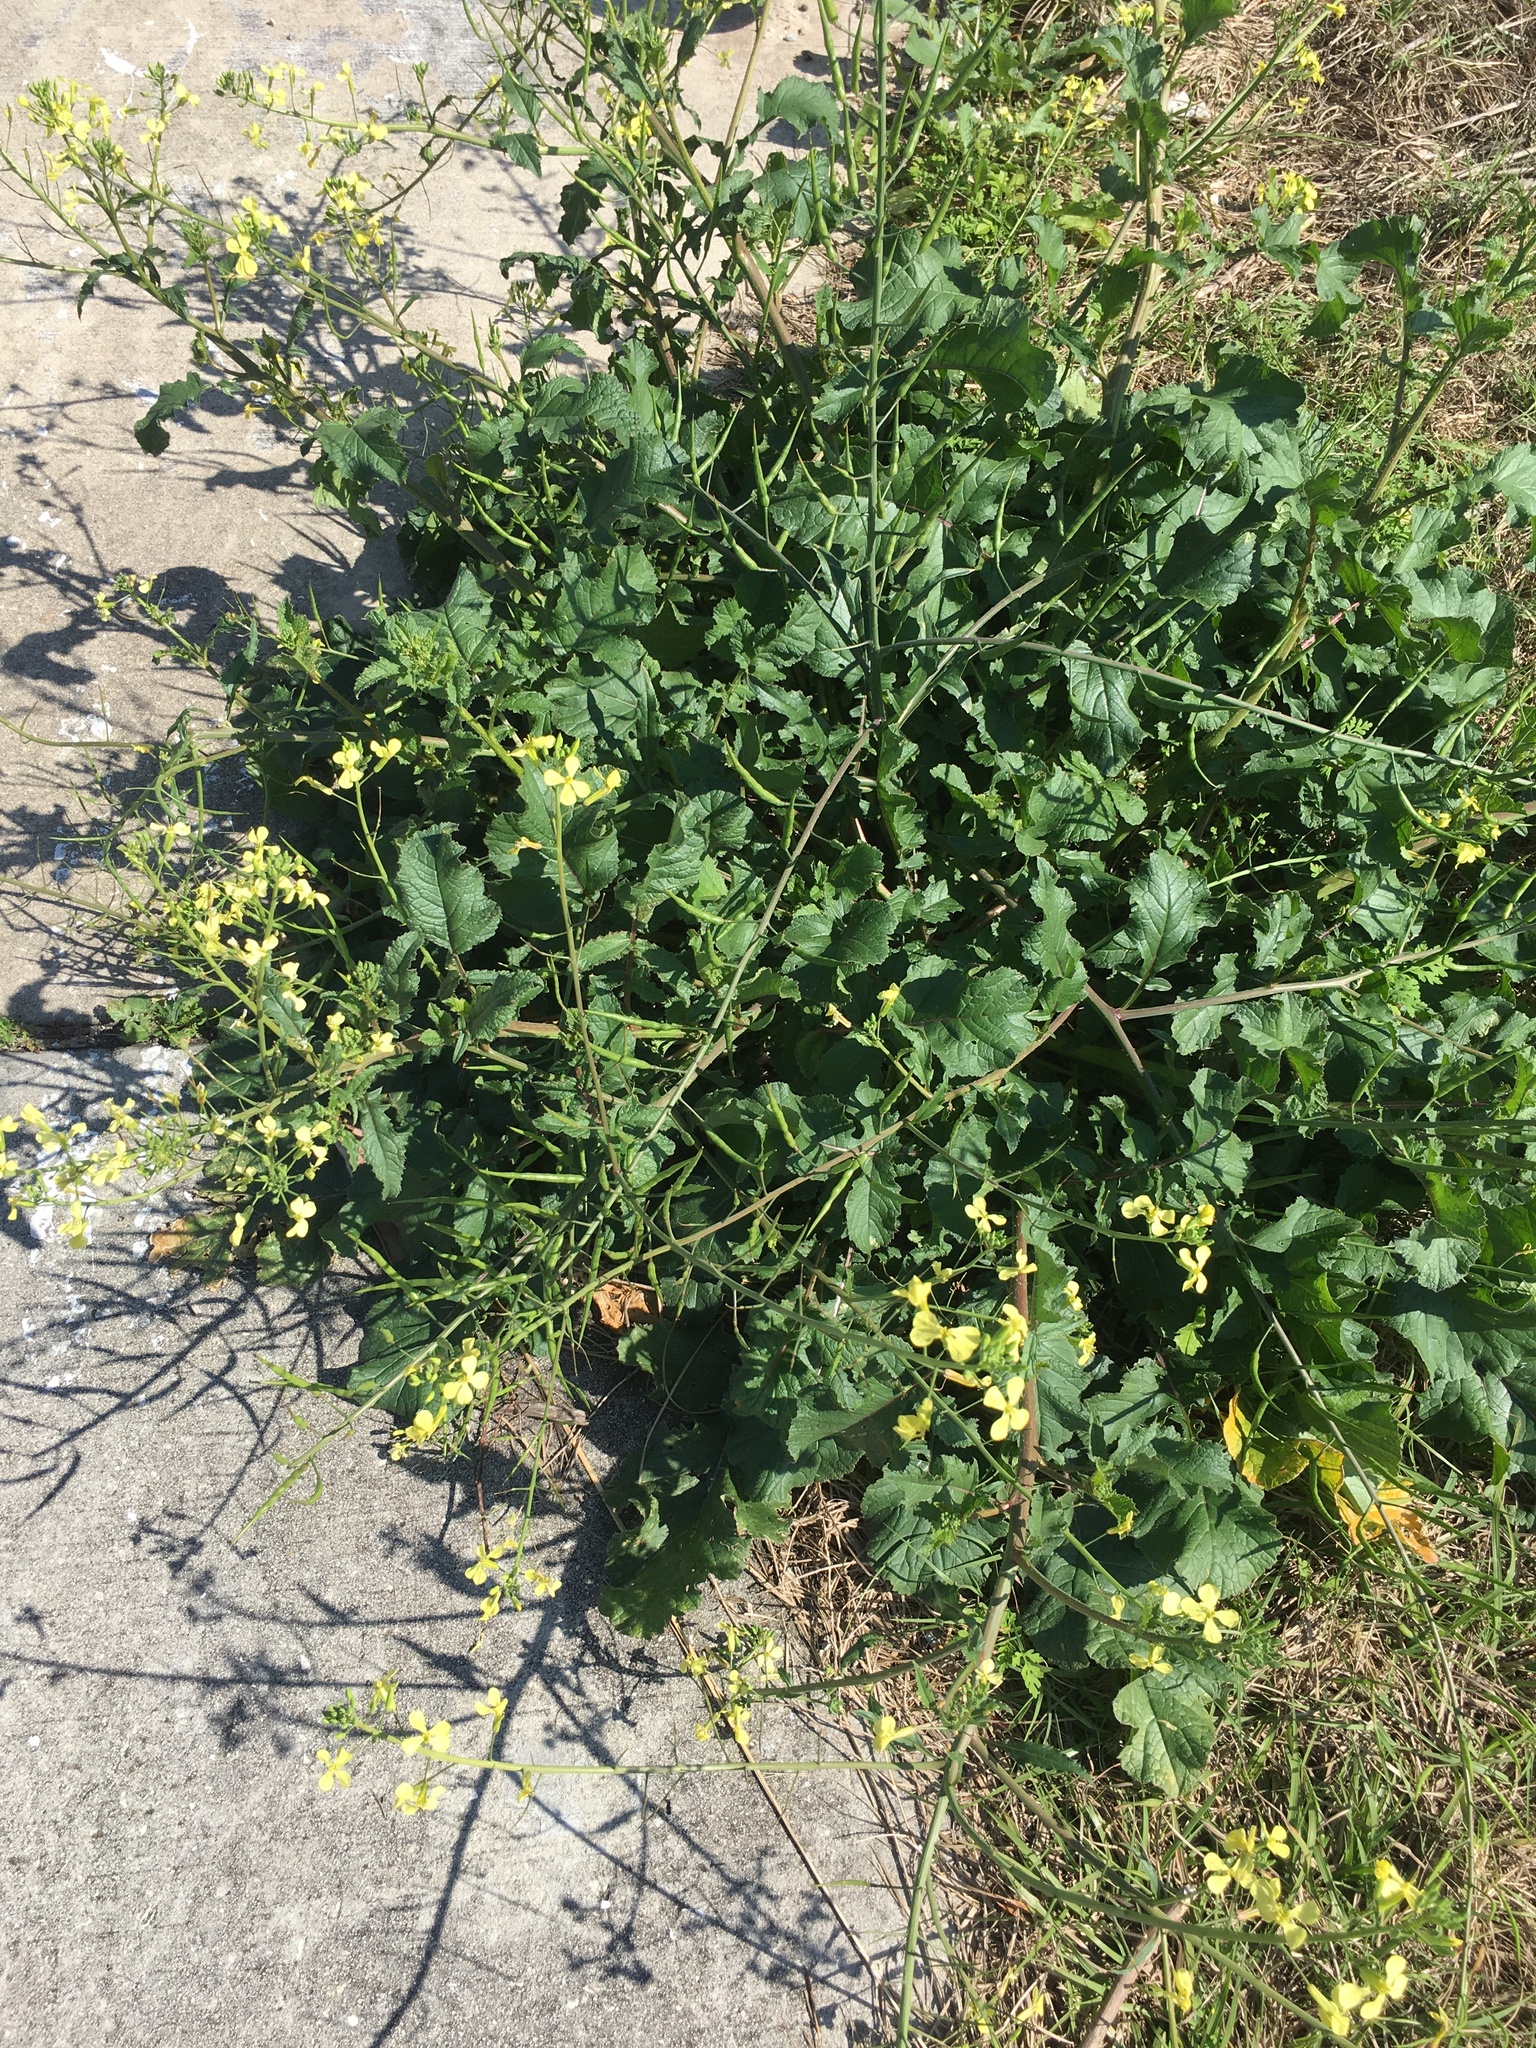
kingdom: Plantae
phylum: Tracheophyta
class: Magnoliopsida
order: Brassicales
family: Brassicaceae
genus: Raphanus
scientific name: Raphanus raphanistrum
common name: Wild radish
